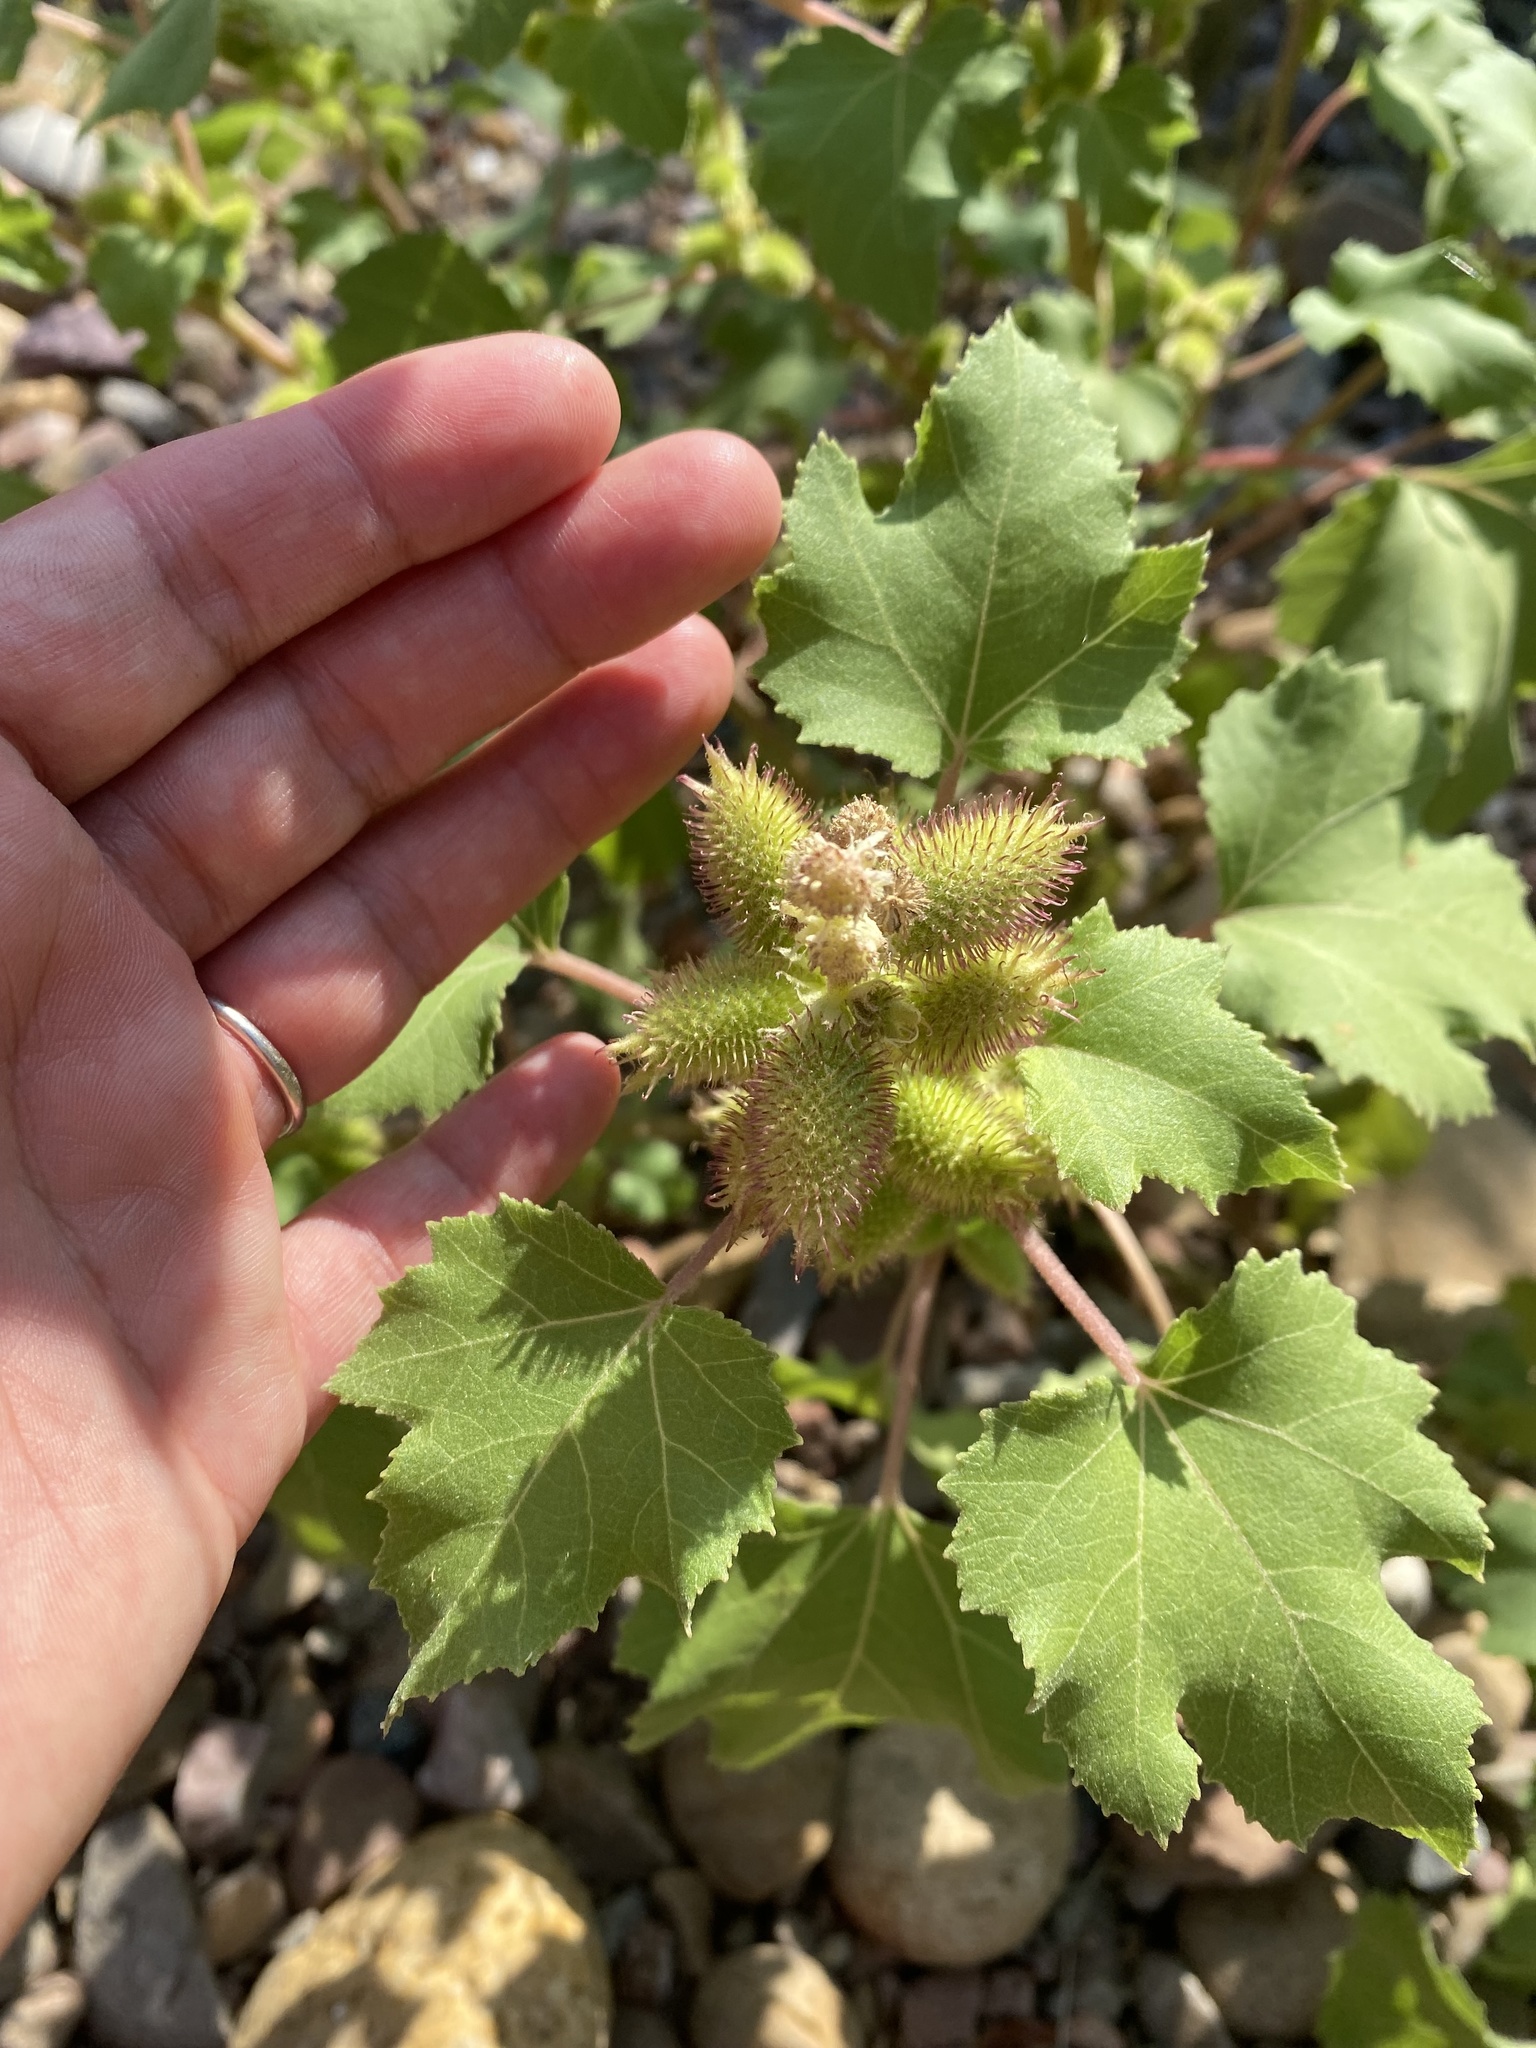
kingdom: Plantae
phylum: Tracheophyta
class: Magnoliopsida
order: Asterales
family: Asteraceae
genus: Xanthium
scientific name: Xanthium strumarium
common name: Rough cocklebur
